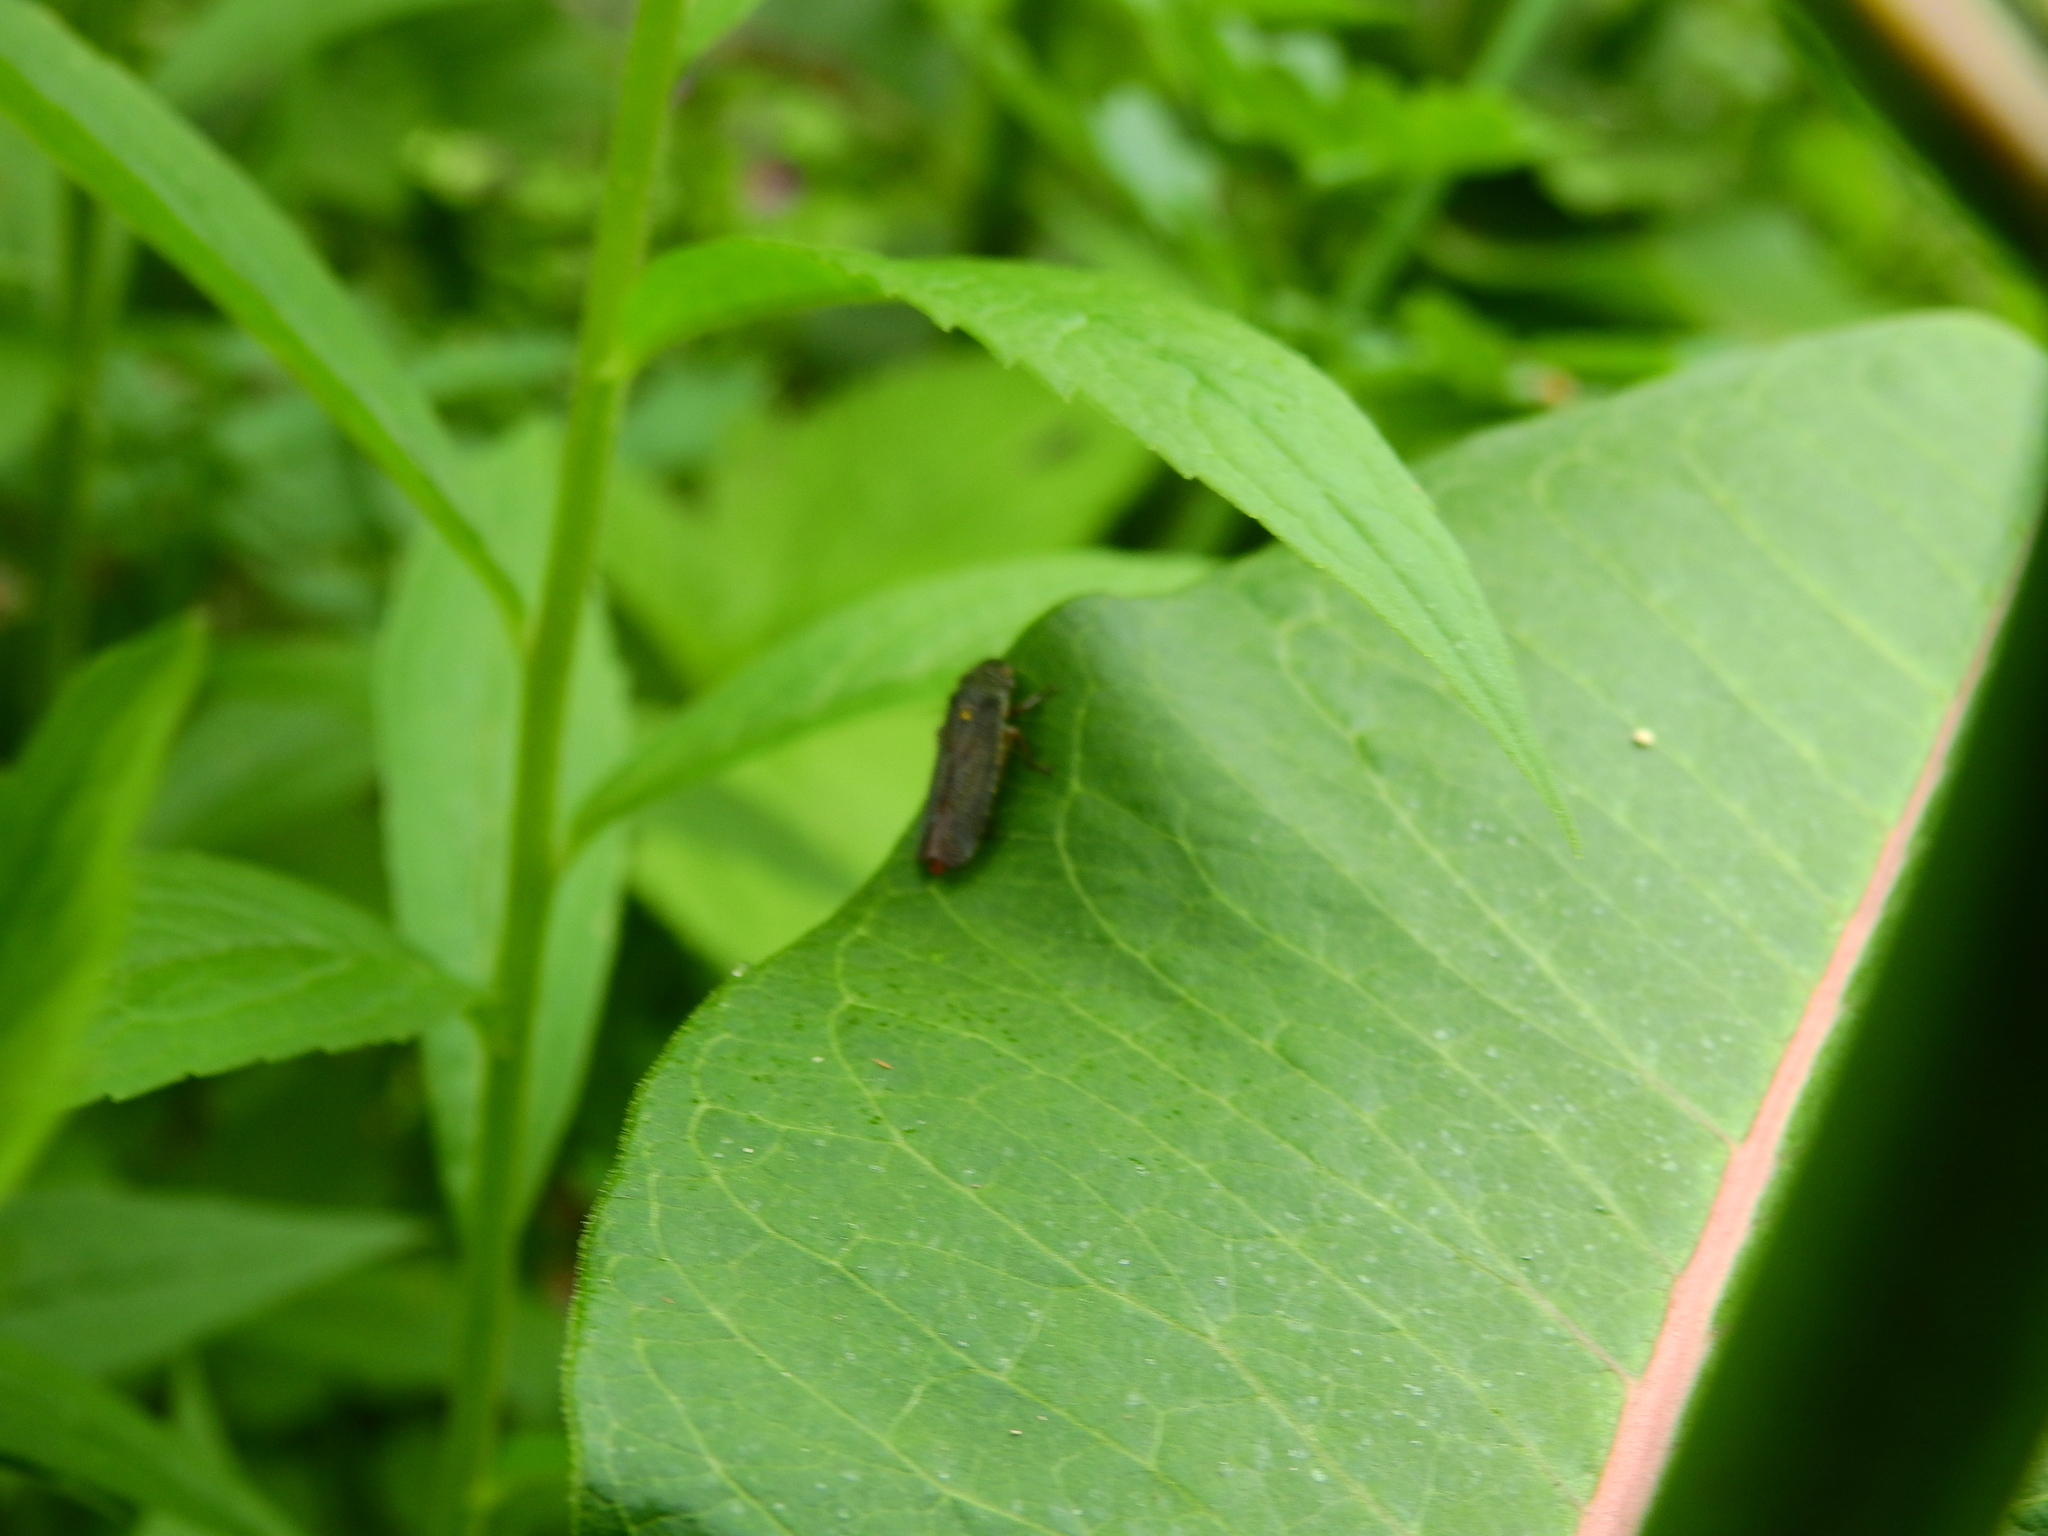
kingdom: Animalia
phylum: Arthropoda
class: Insecta
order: Hemiptera
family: Cicadellidae
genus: Paraulacizes
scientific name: Paraulacizes irrorata
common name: Speckled sharpshooter
